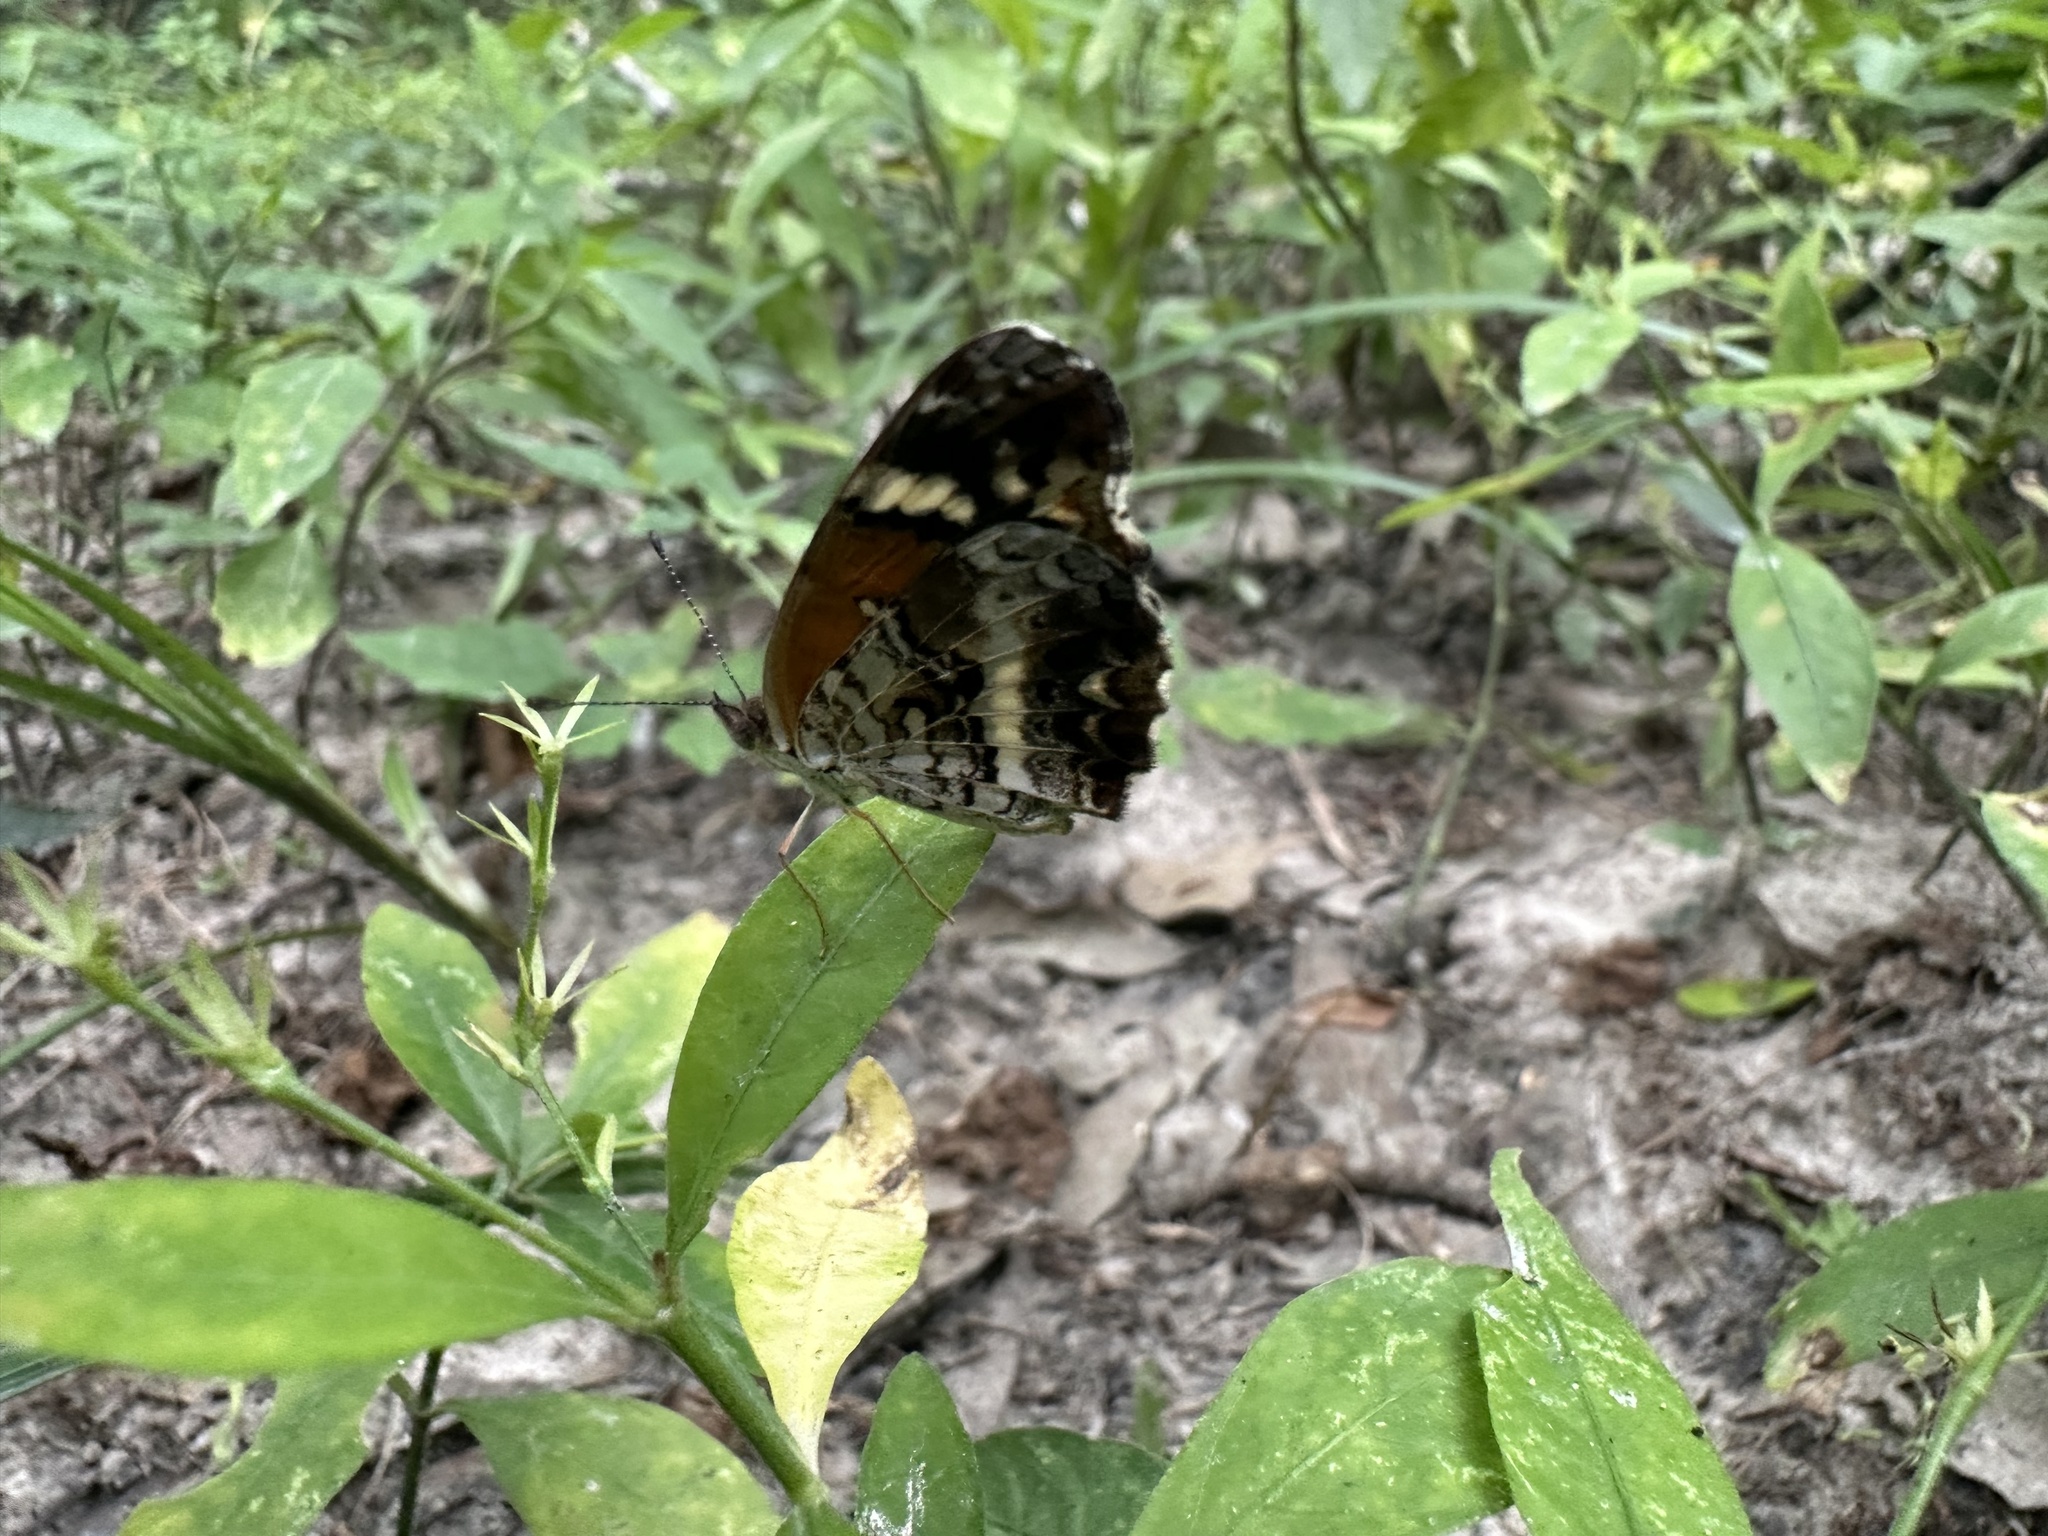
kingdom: Animalia
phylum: Arthropoda
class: Insecta
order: Lepidoptera
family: Nymphalidae
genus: Anthanassa
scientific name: Anthanassa taxana
